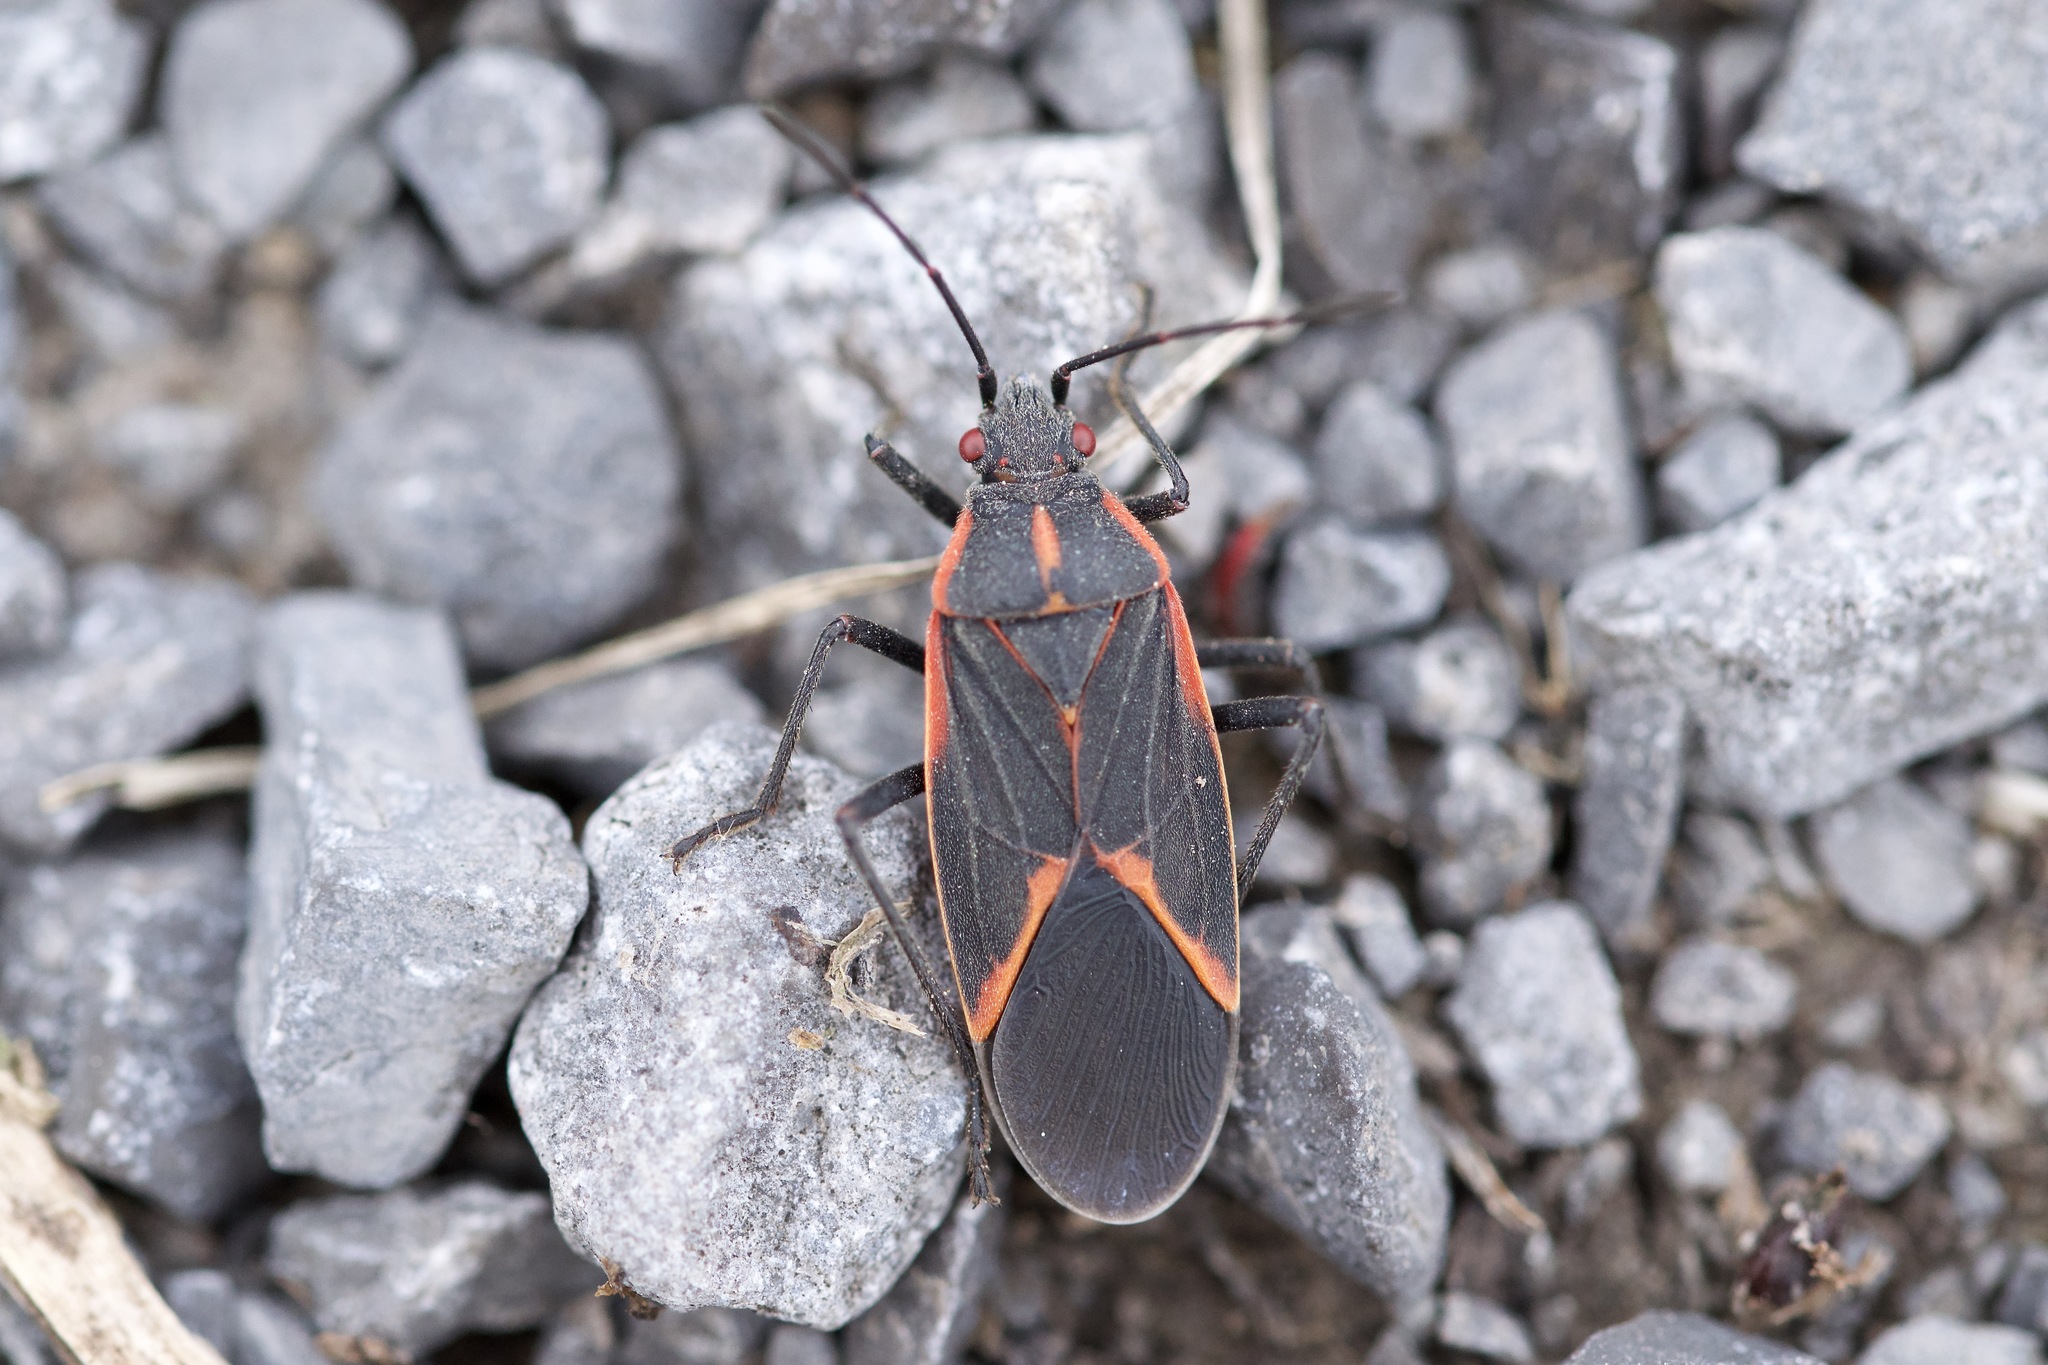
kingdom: Animalia
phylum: Arthropoda
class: Insecta
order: Hemiptera
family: Rhopalidae
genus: Boisea
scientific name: Boisea trivittata
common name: Boxelder bug
